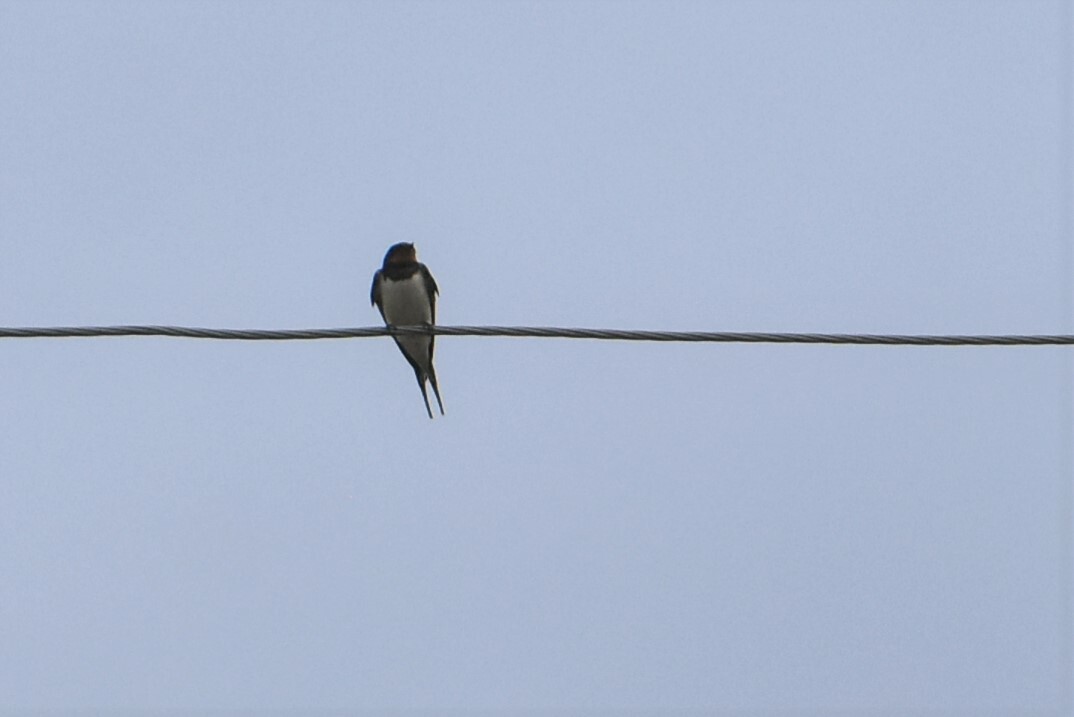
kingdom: Animalia
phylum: Chordata
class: Aves
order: Passeriformes
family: Hirundinidae
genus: Hirundo
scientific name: Hirundo rustica
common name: Barn swallow
